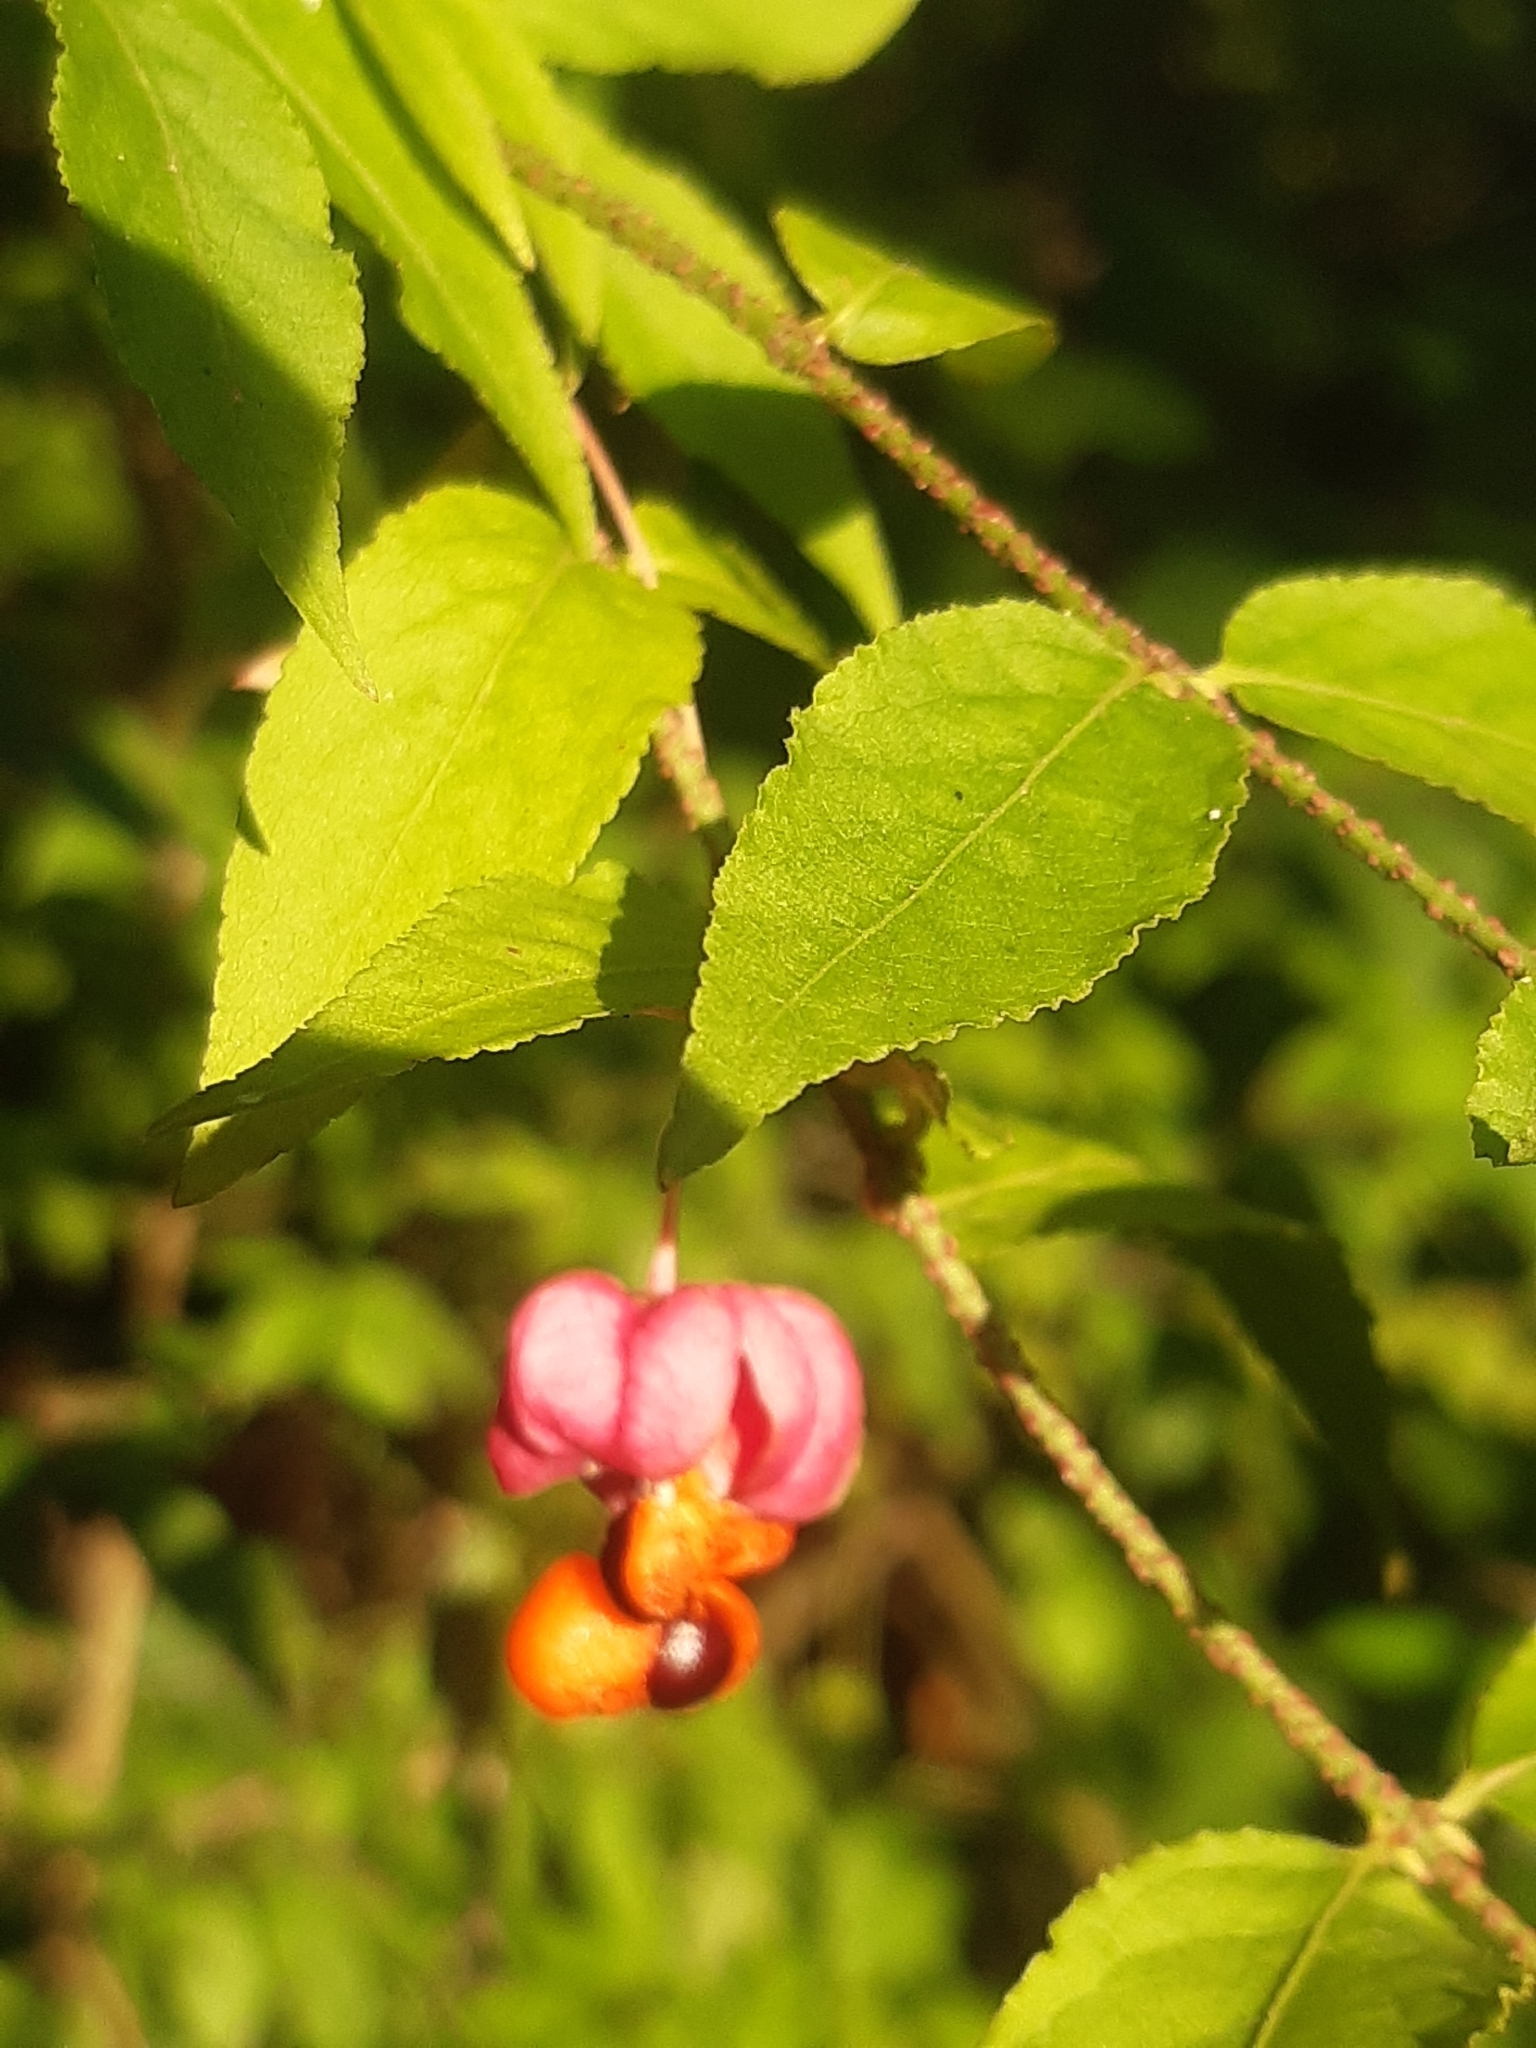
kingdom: Plantae
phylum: Tracheophyta
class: Magnoliopsida
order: Celastrales
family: Celastraceae
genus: Euonymus
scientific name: Euonymus verrucosus
